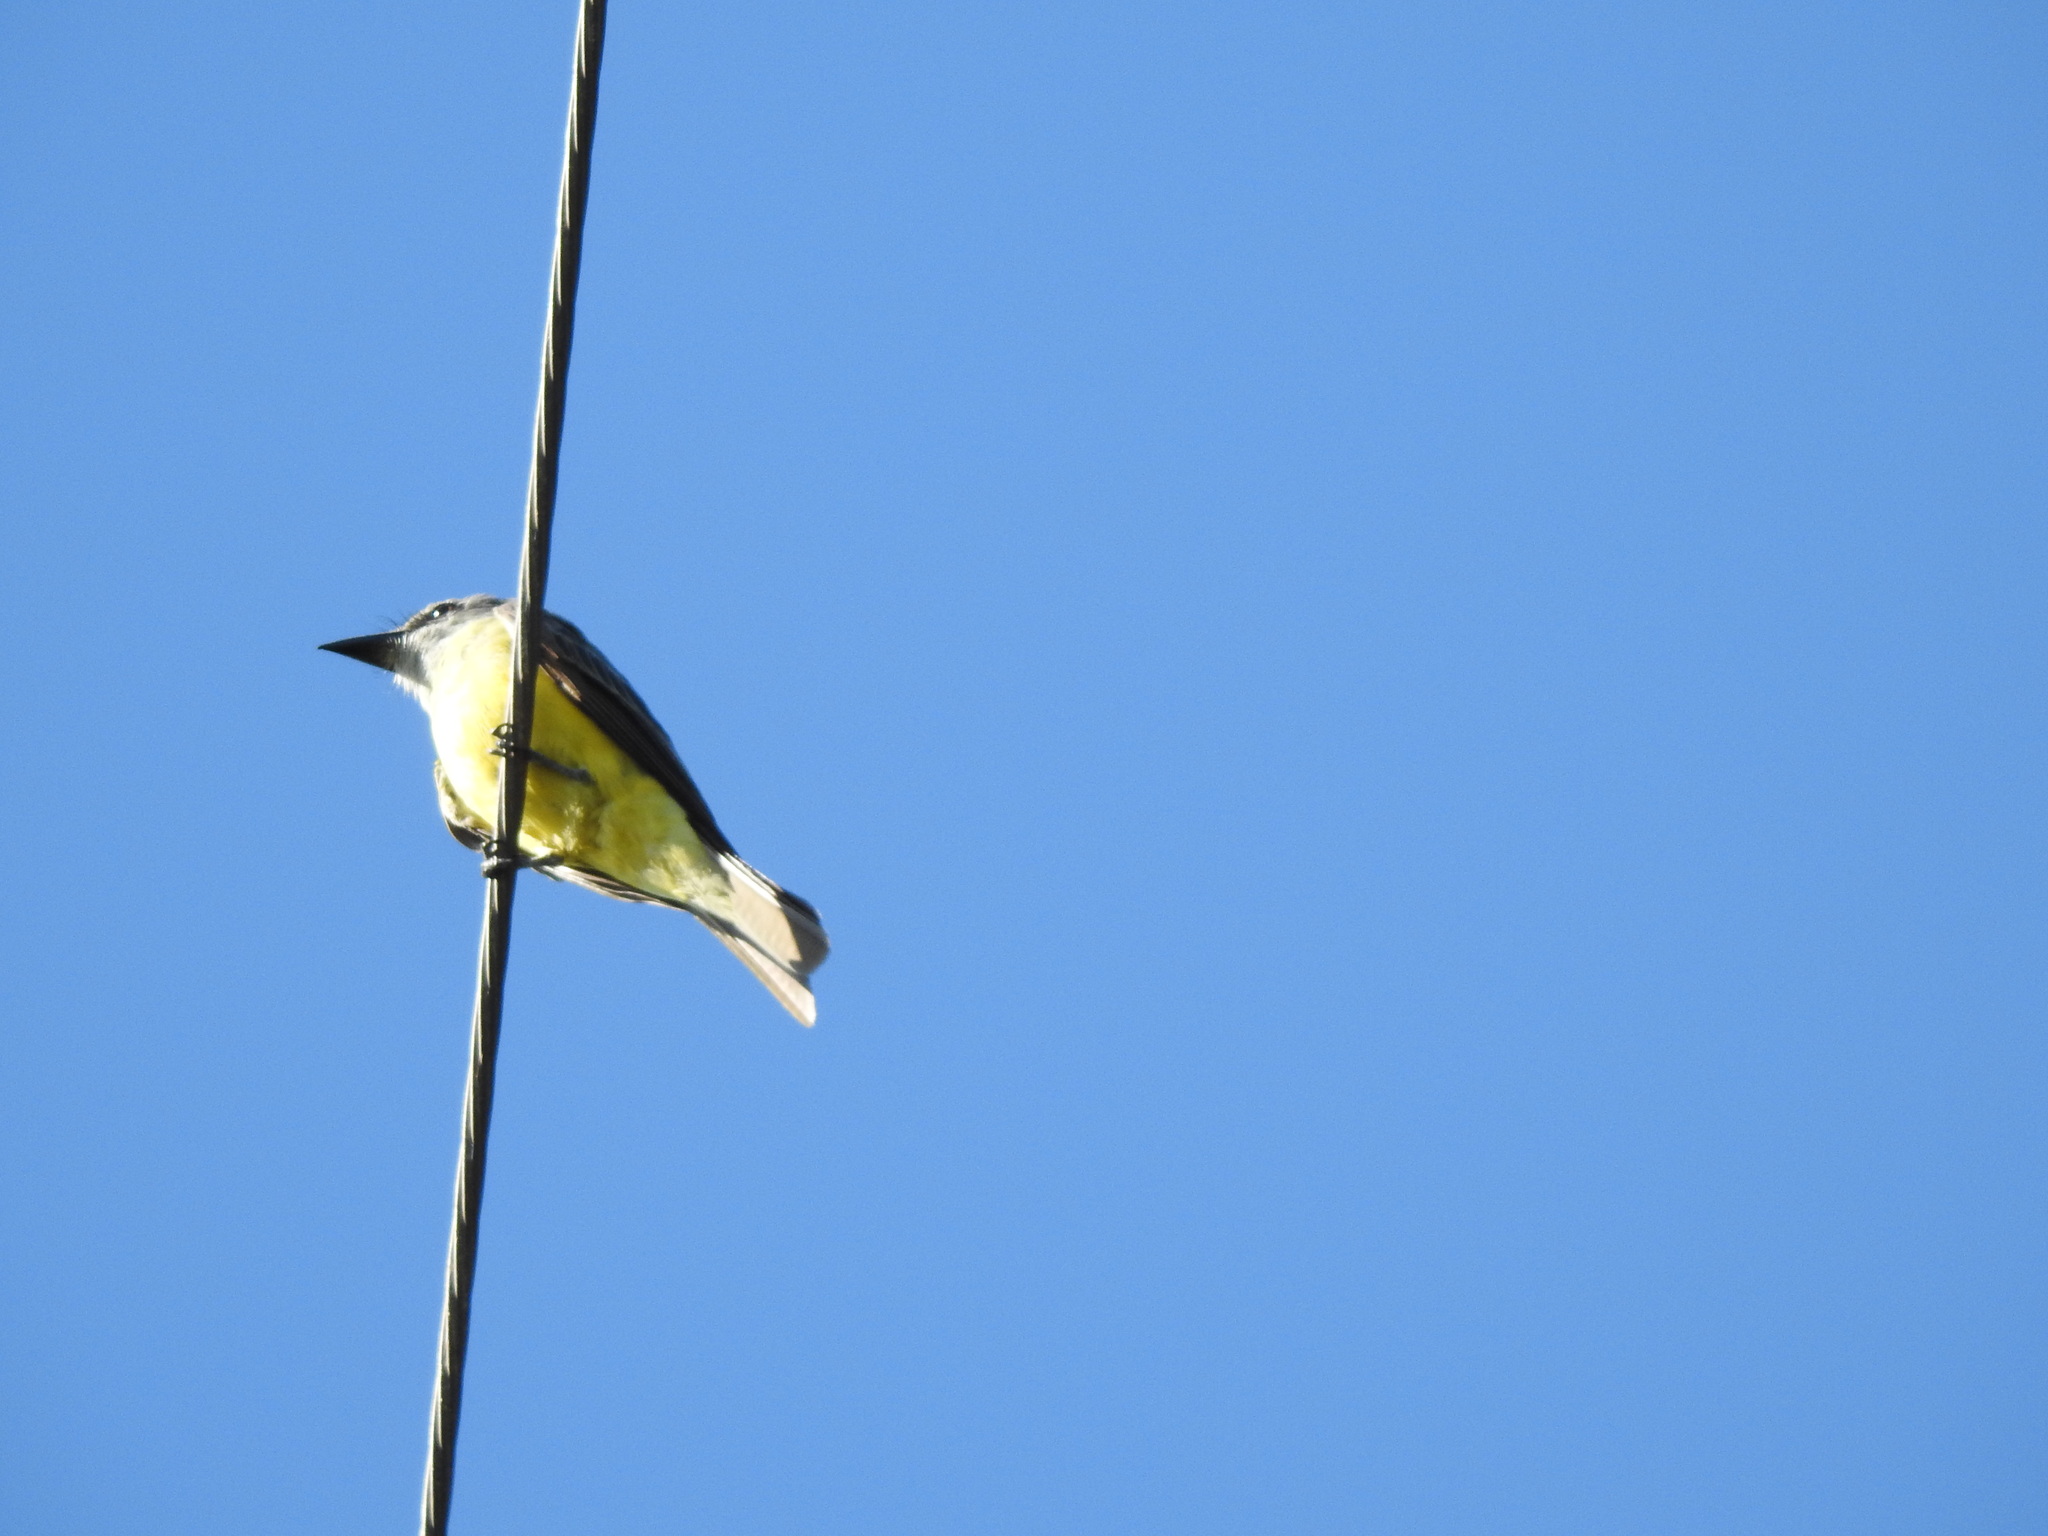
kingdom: Animalia
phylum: Chordata
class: Aves
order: Passeriformes
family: Tyrannidae
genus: Tyrannus
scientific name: Tyrannus melancholicus
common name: Tropical kingbird
